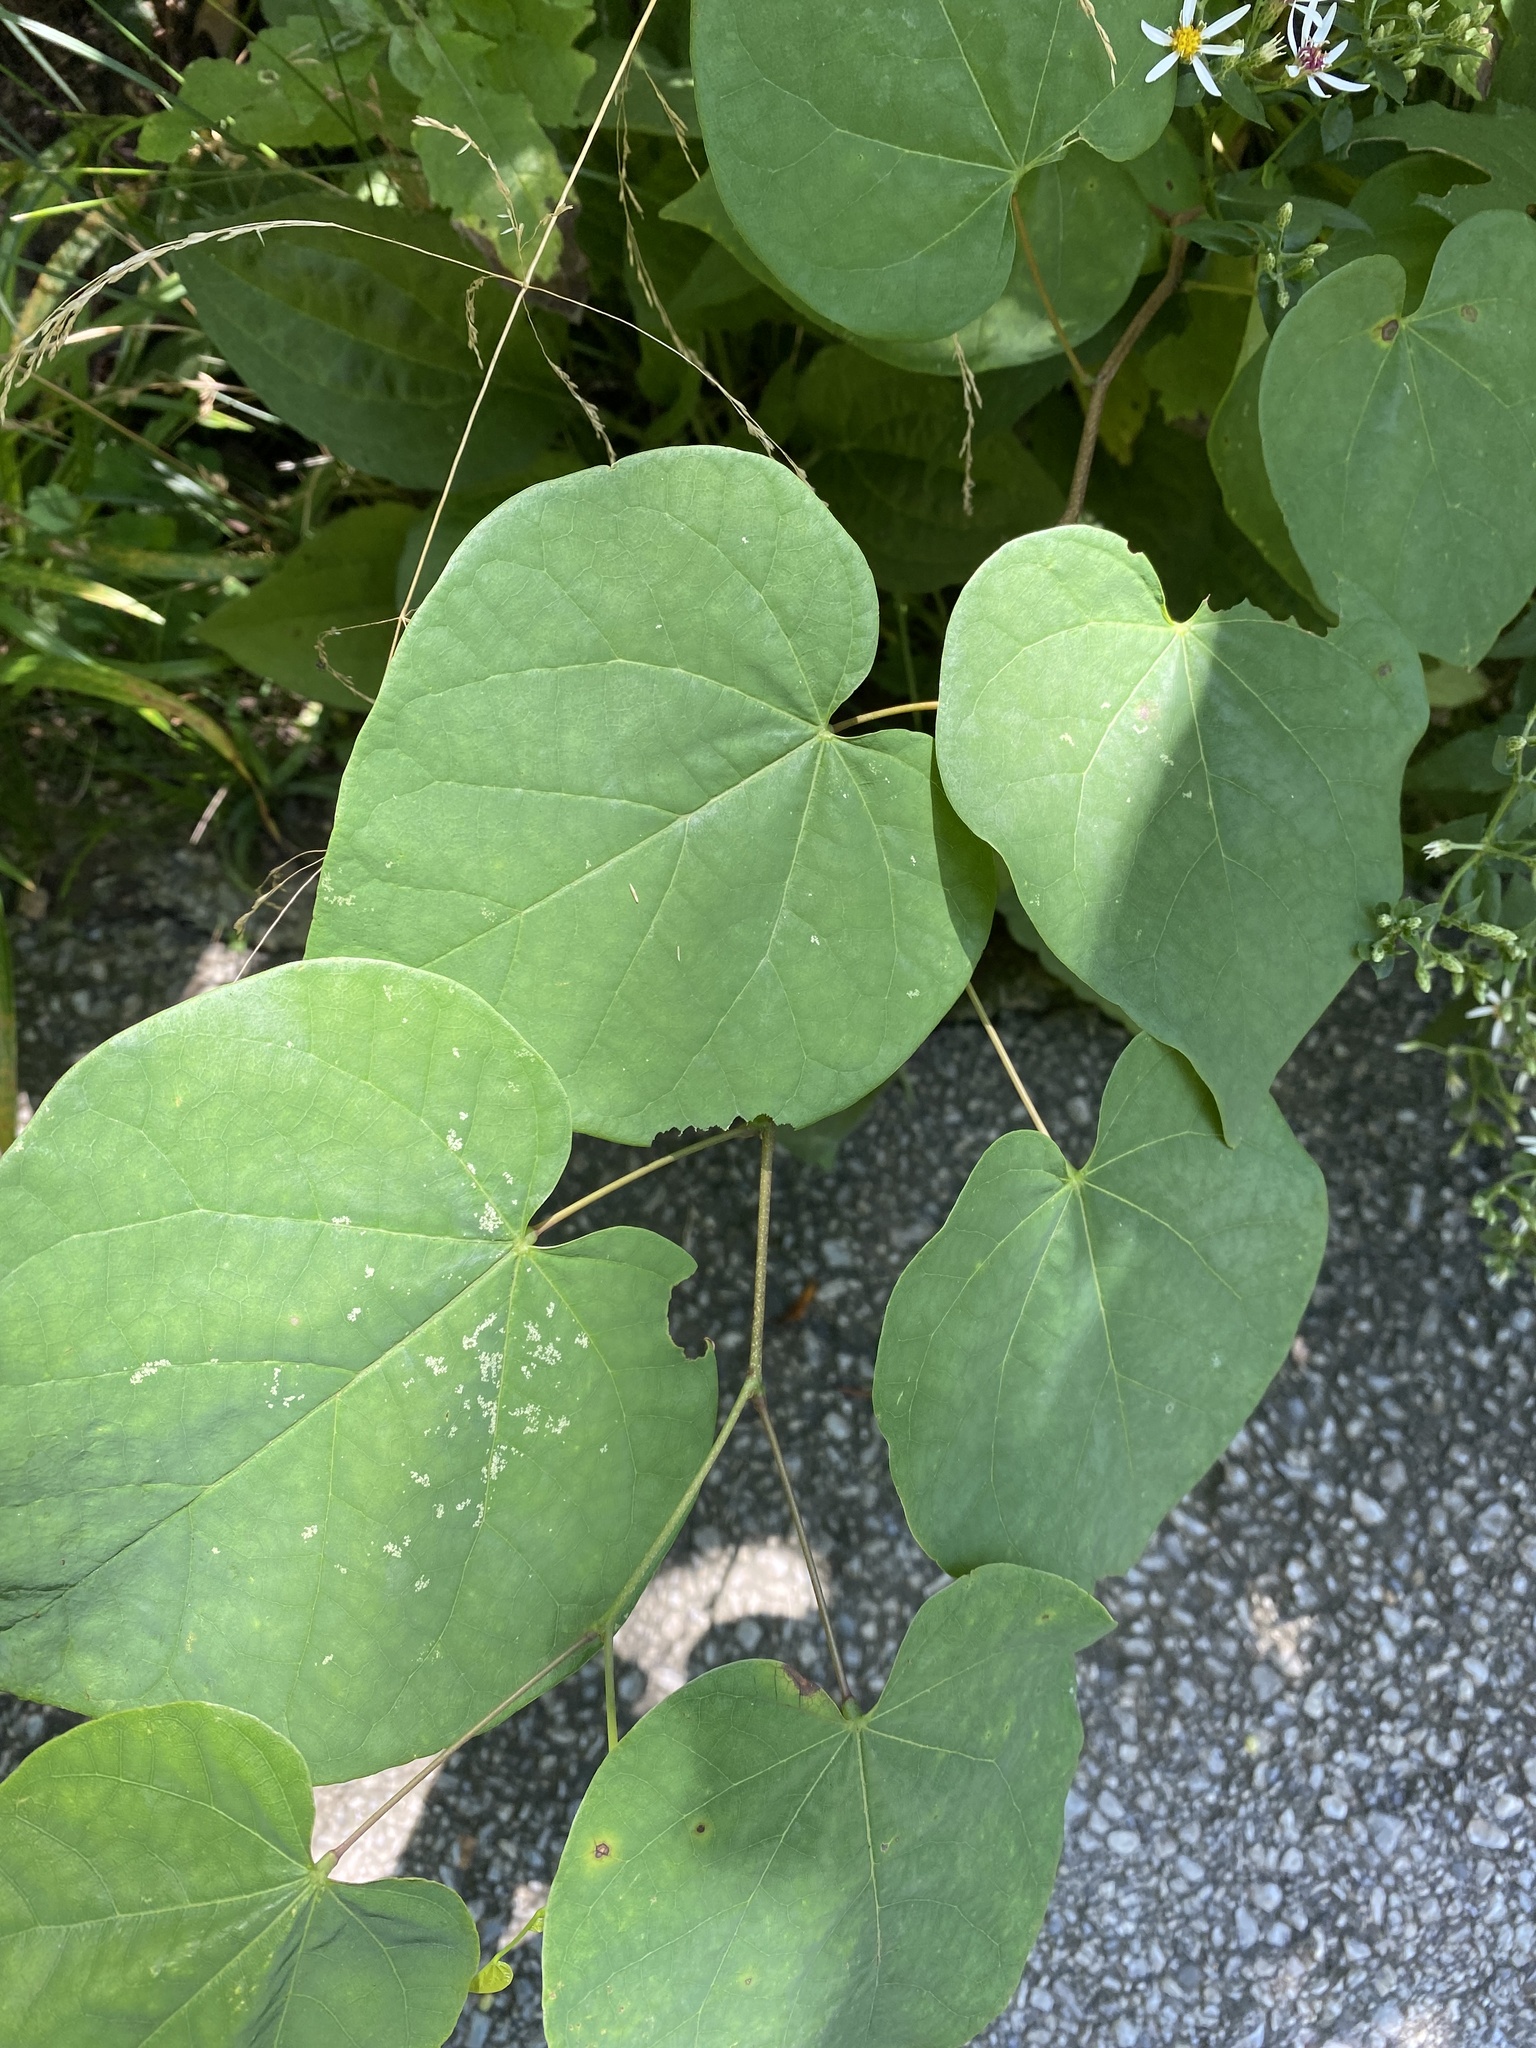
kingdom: Plantae
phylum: Tracheophyta
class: Magnoliopsida
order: Fabales
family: Fabaceae
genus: Cercis
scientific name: Cercis canadensis
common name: Eastern redbud
